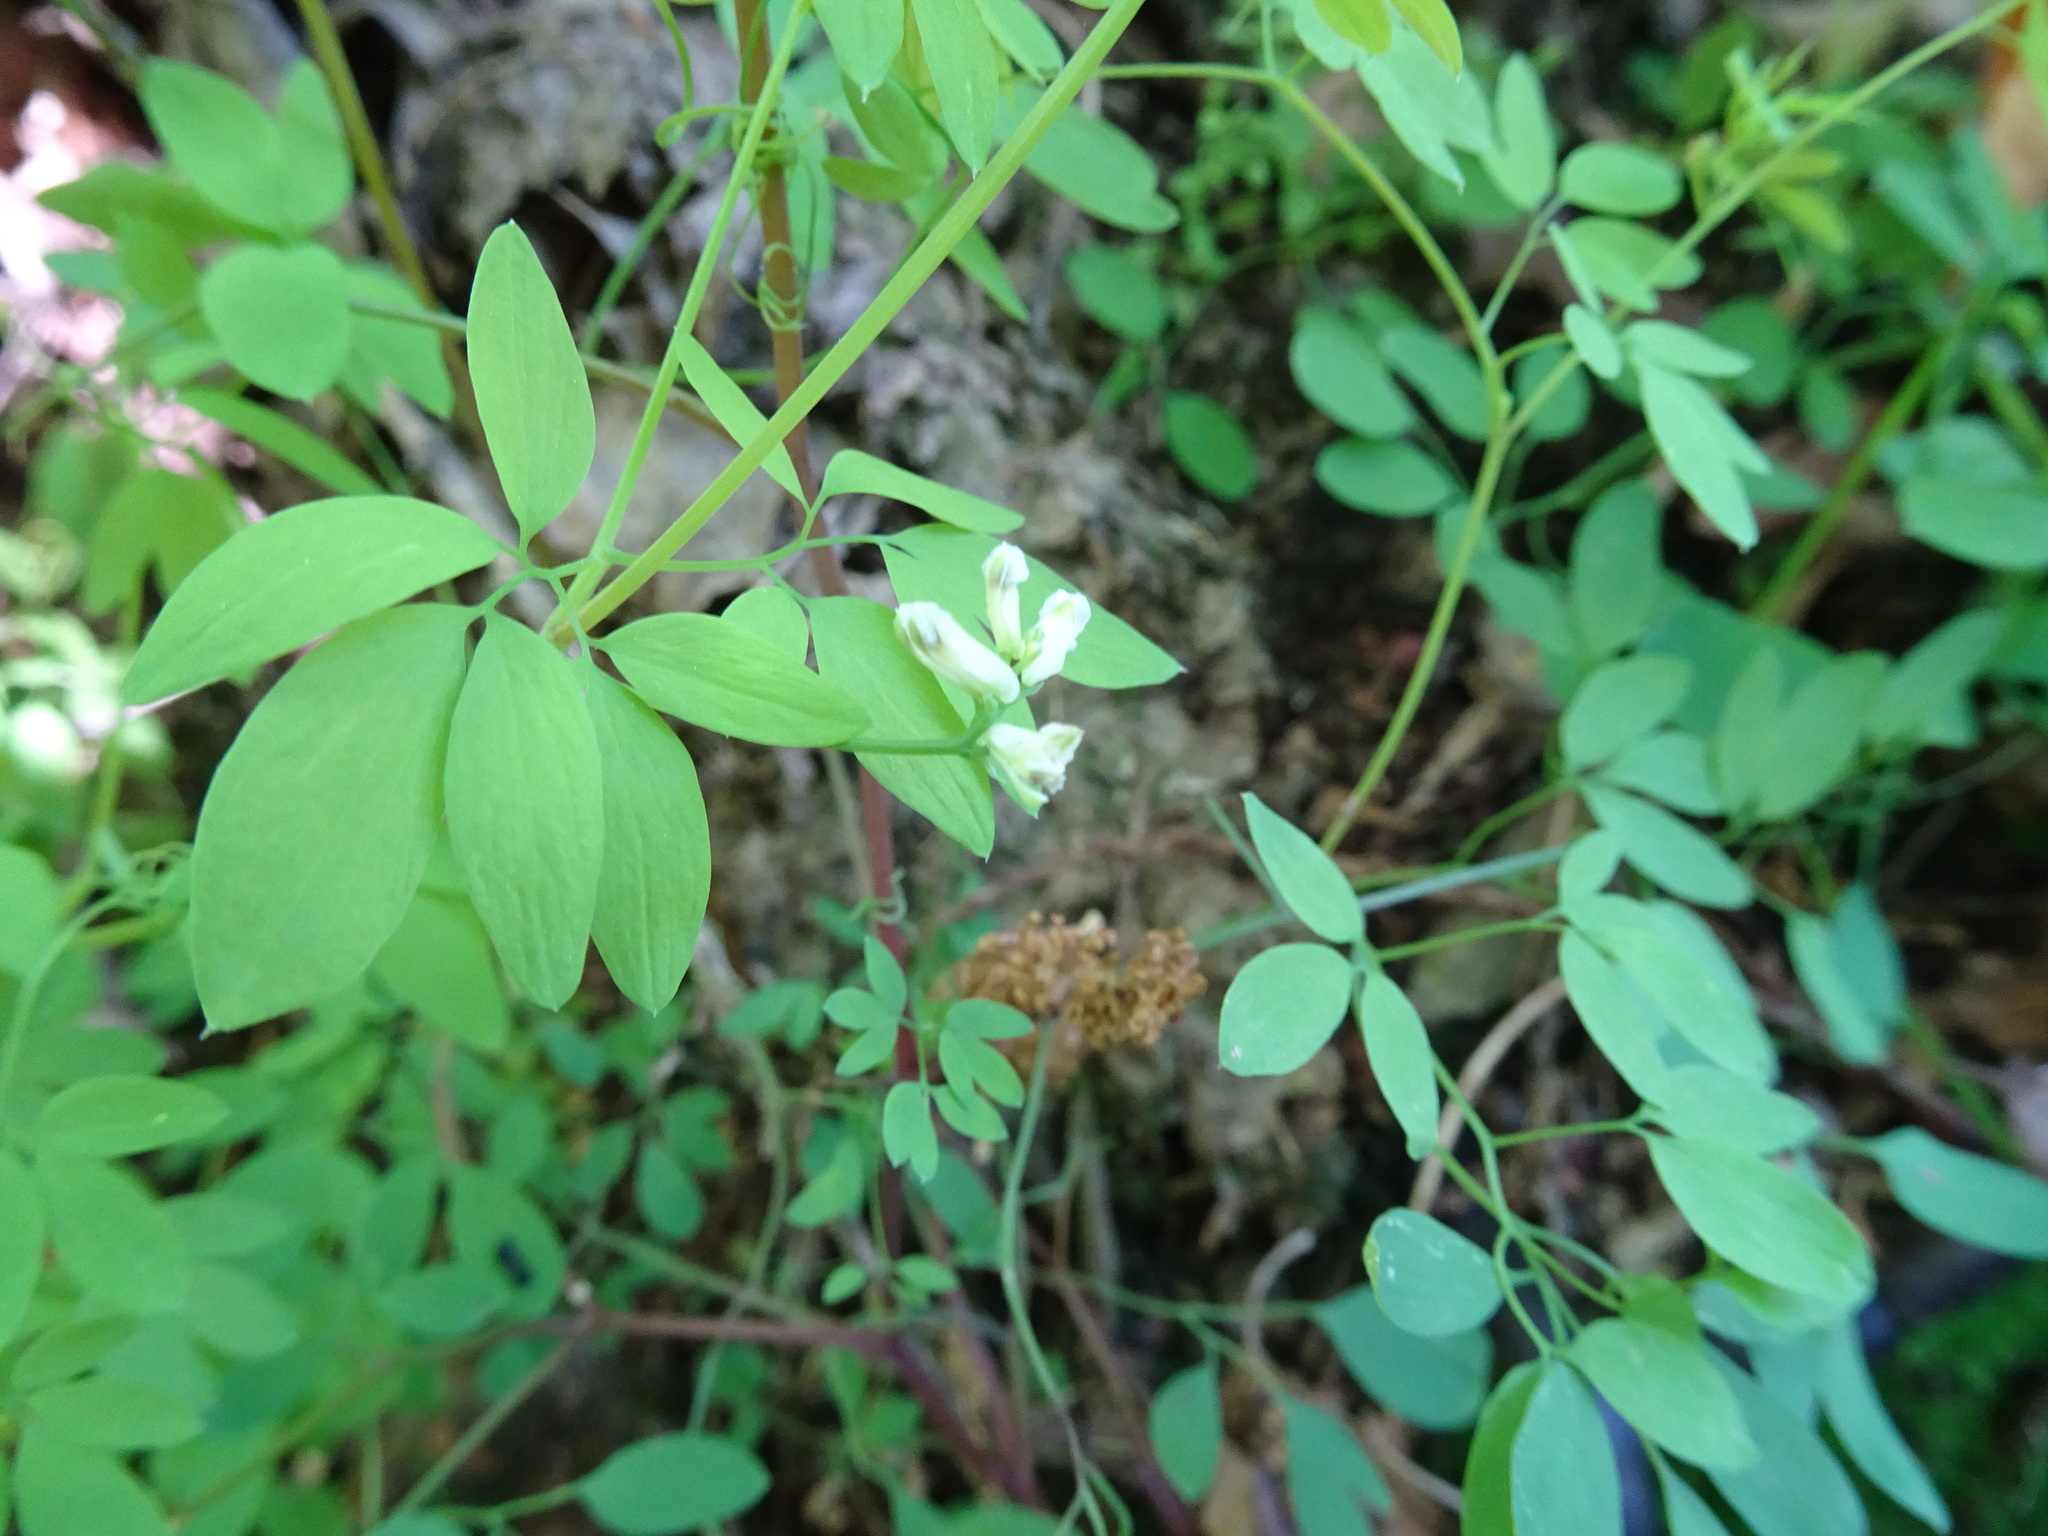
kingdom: Plantae
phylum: Tracheophyta
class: Magnoliopsida
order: Ranunculales
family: Papaveraceae
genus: Ceratocapnos
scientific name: Ceratocapnos claviculata
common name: Climbing corydalis
